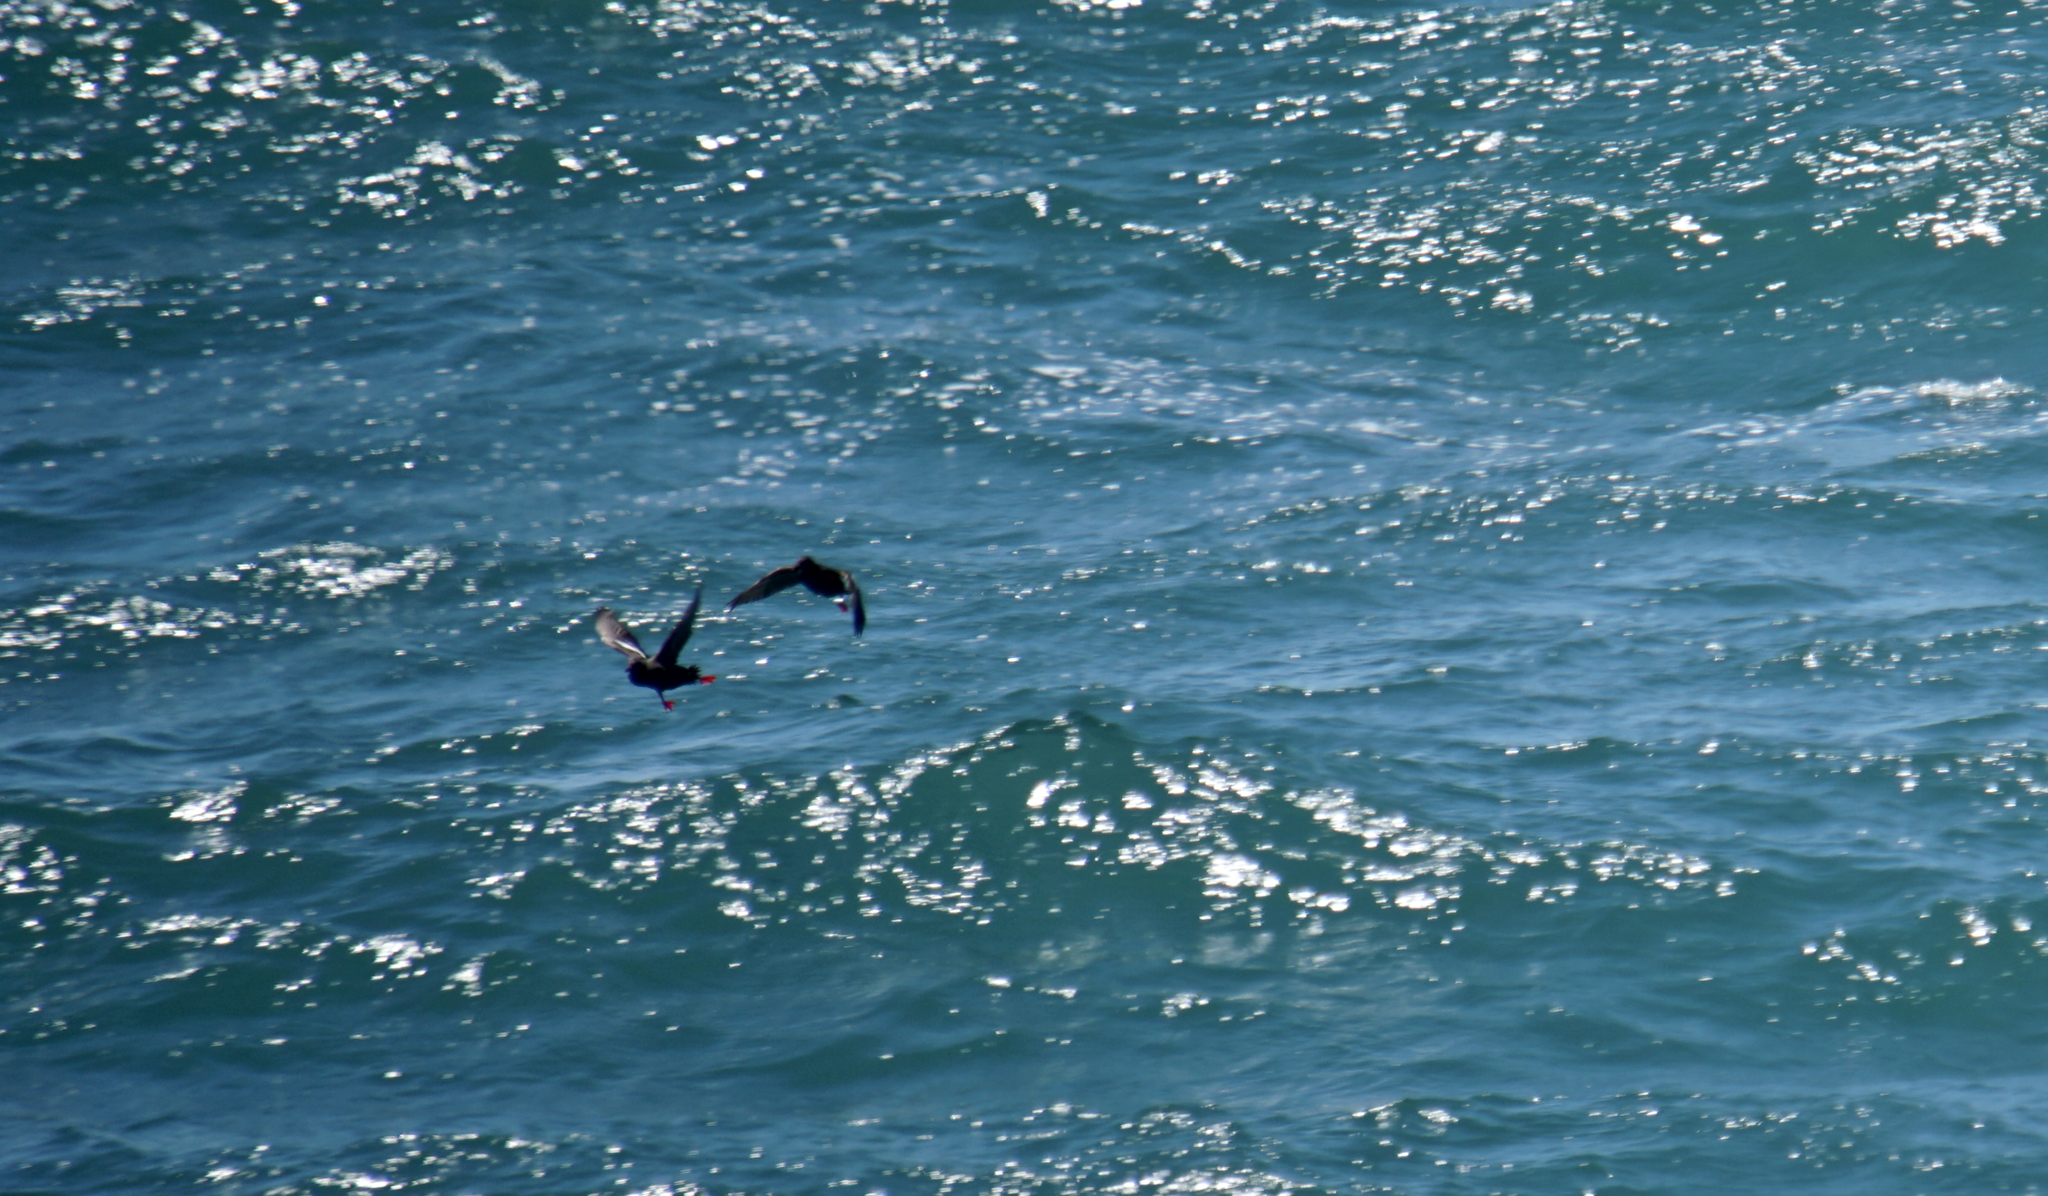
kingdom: Animalia
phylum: Chordata
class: Aves
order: Charadriiformes
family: Alcidae
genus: Cepphus
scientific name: Cepphus columba
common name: Pigeon guillemot
